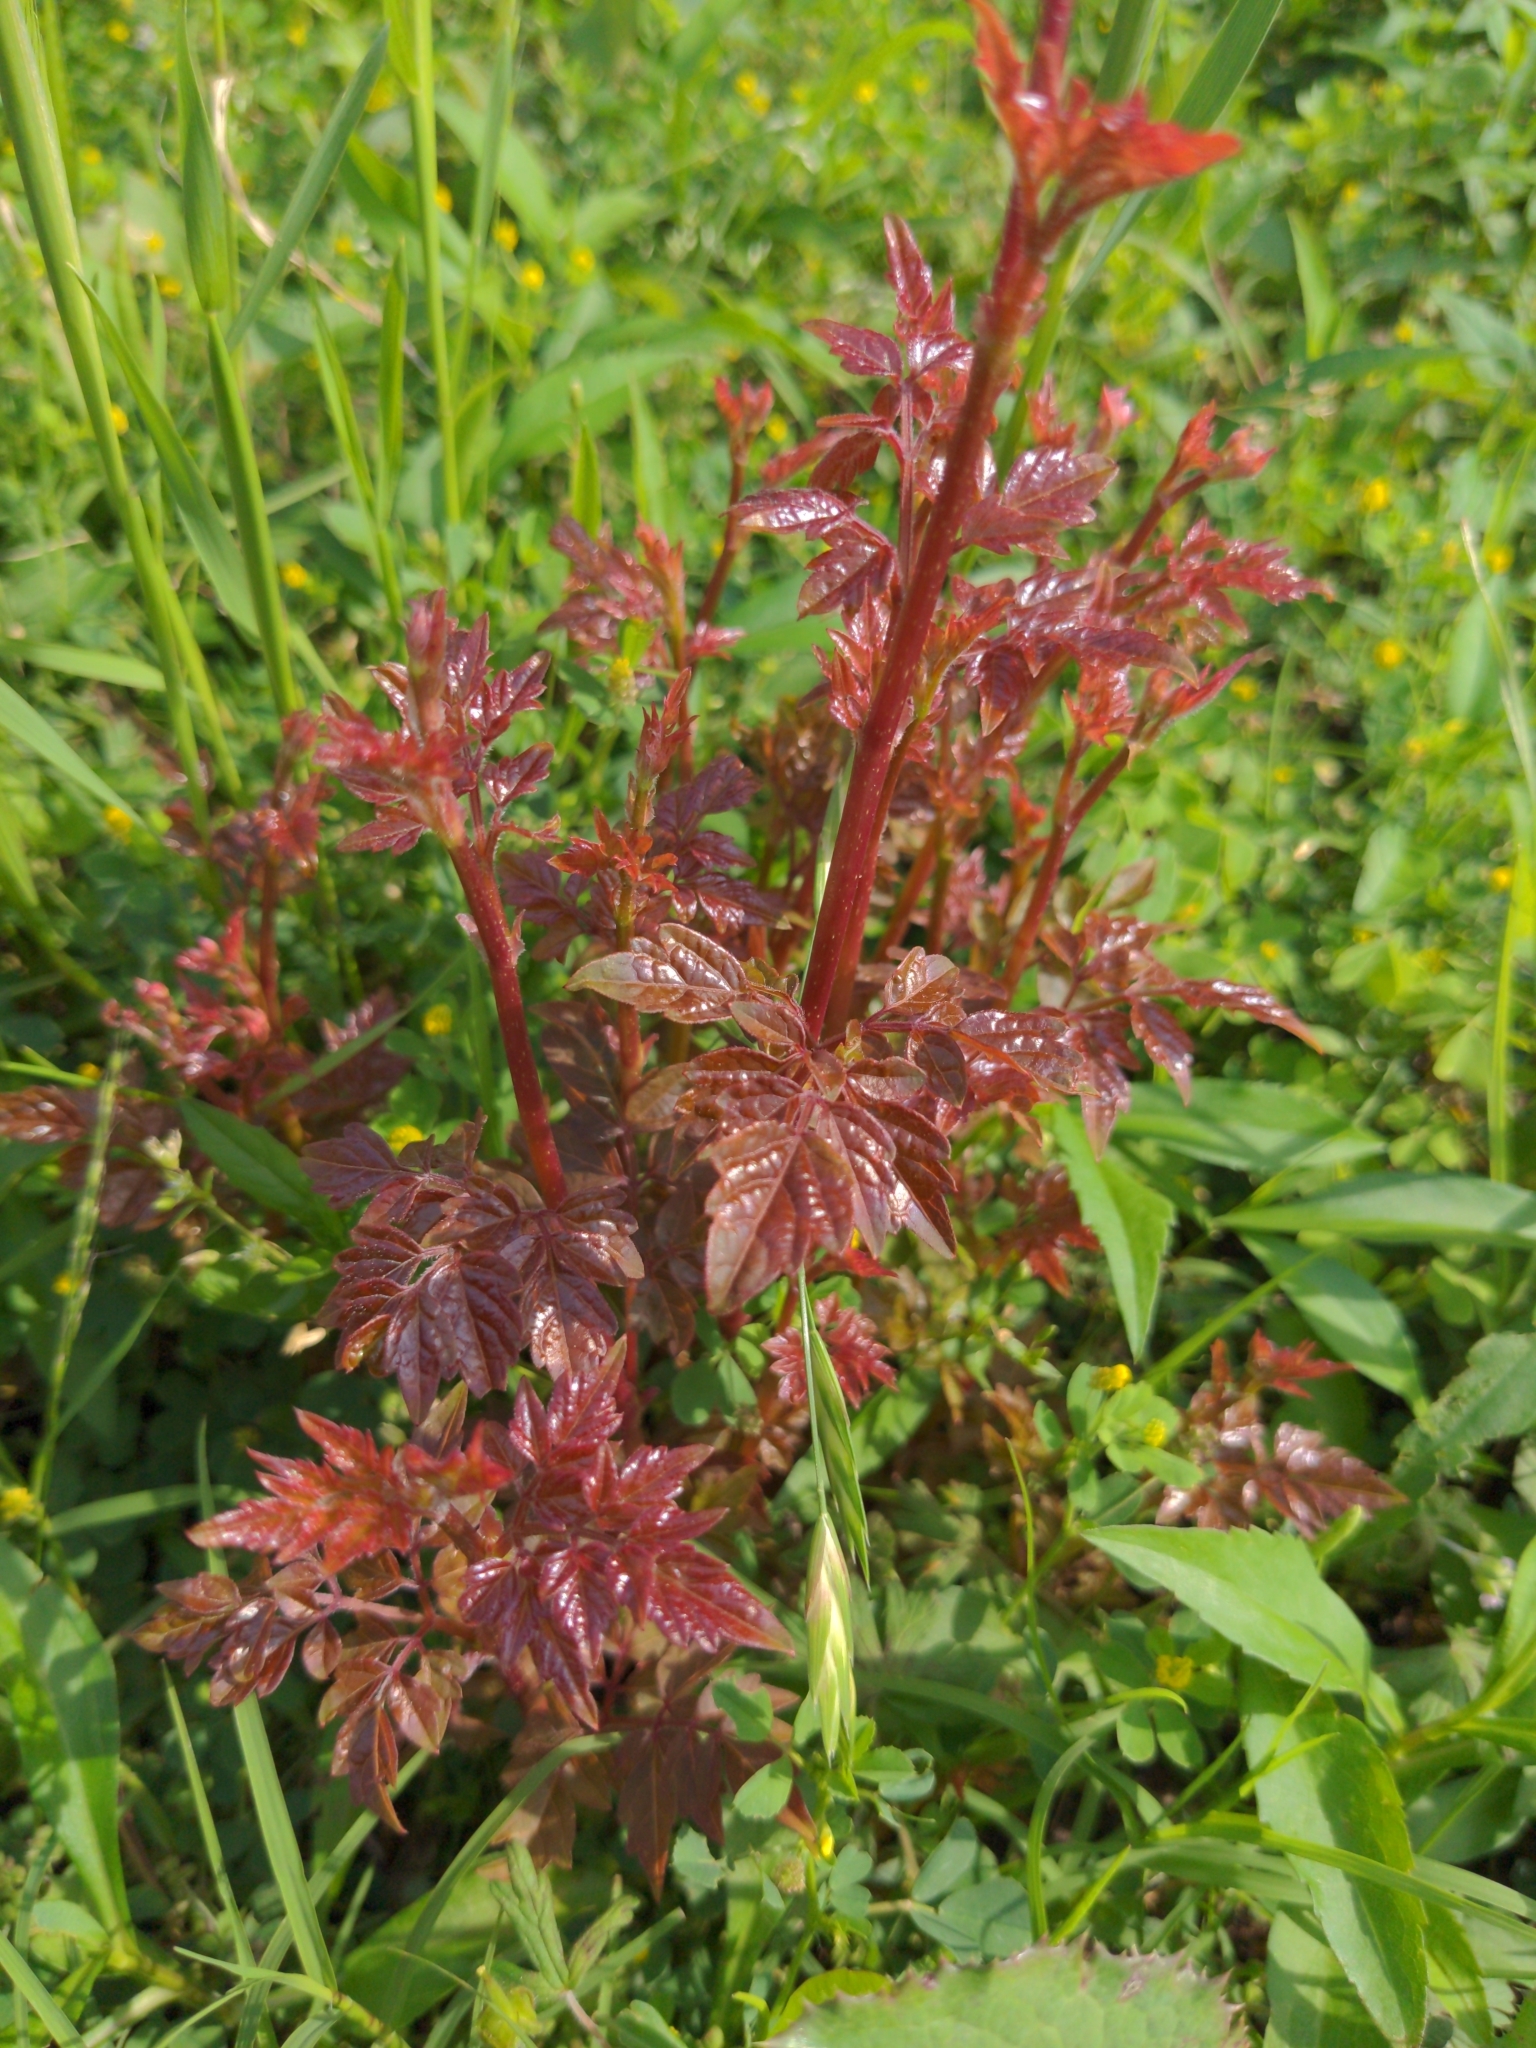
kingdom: Plantae
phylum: Tracheophyta
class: Magnoliopsida
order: Vitales
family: Vitaceae
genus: Nekemias
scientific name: Nekemias arborea
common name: Peppervine
